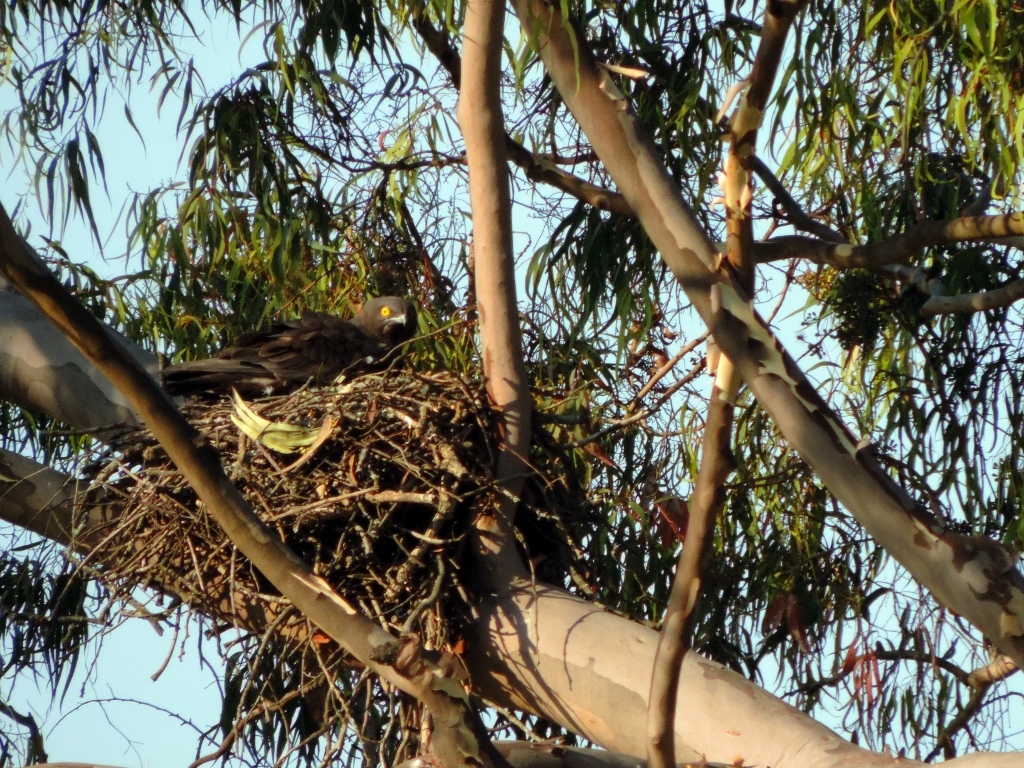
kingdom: Animalia
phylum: Chordata
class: Aves
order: Accipitriformes
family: Accipitridae
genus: Macheiramphus
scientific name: Macheiramphus alcinus
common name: Bat hawk
